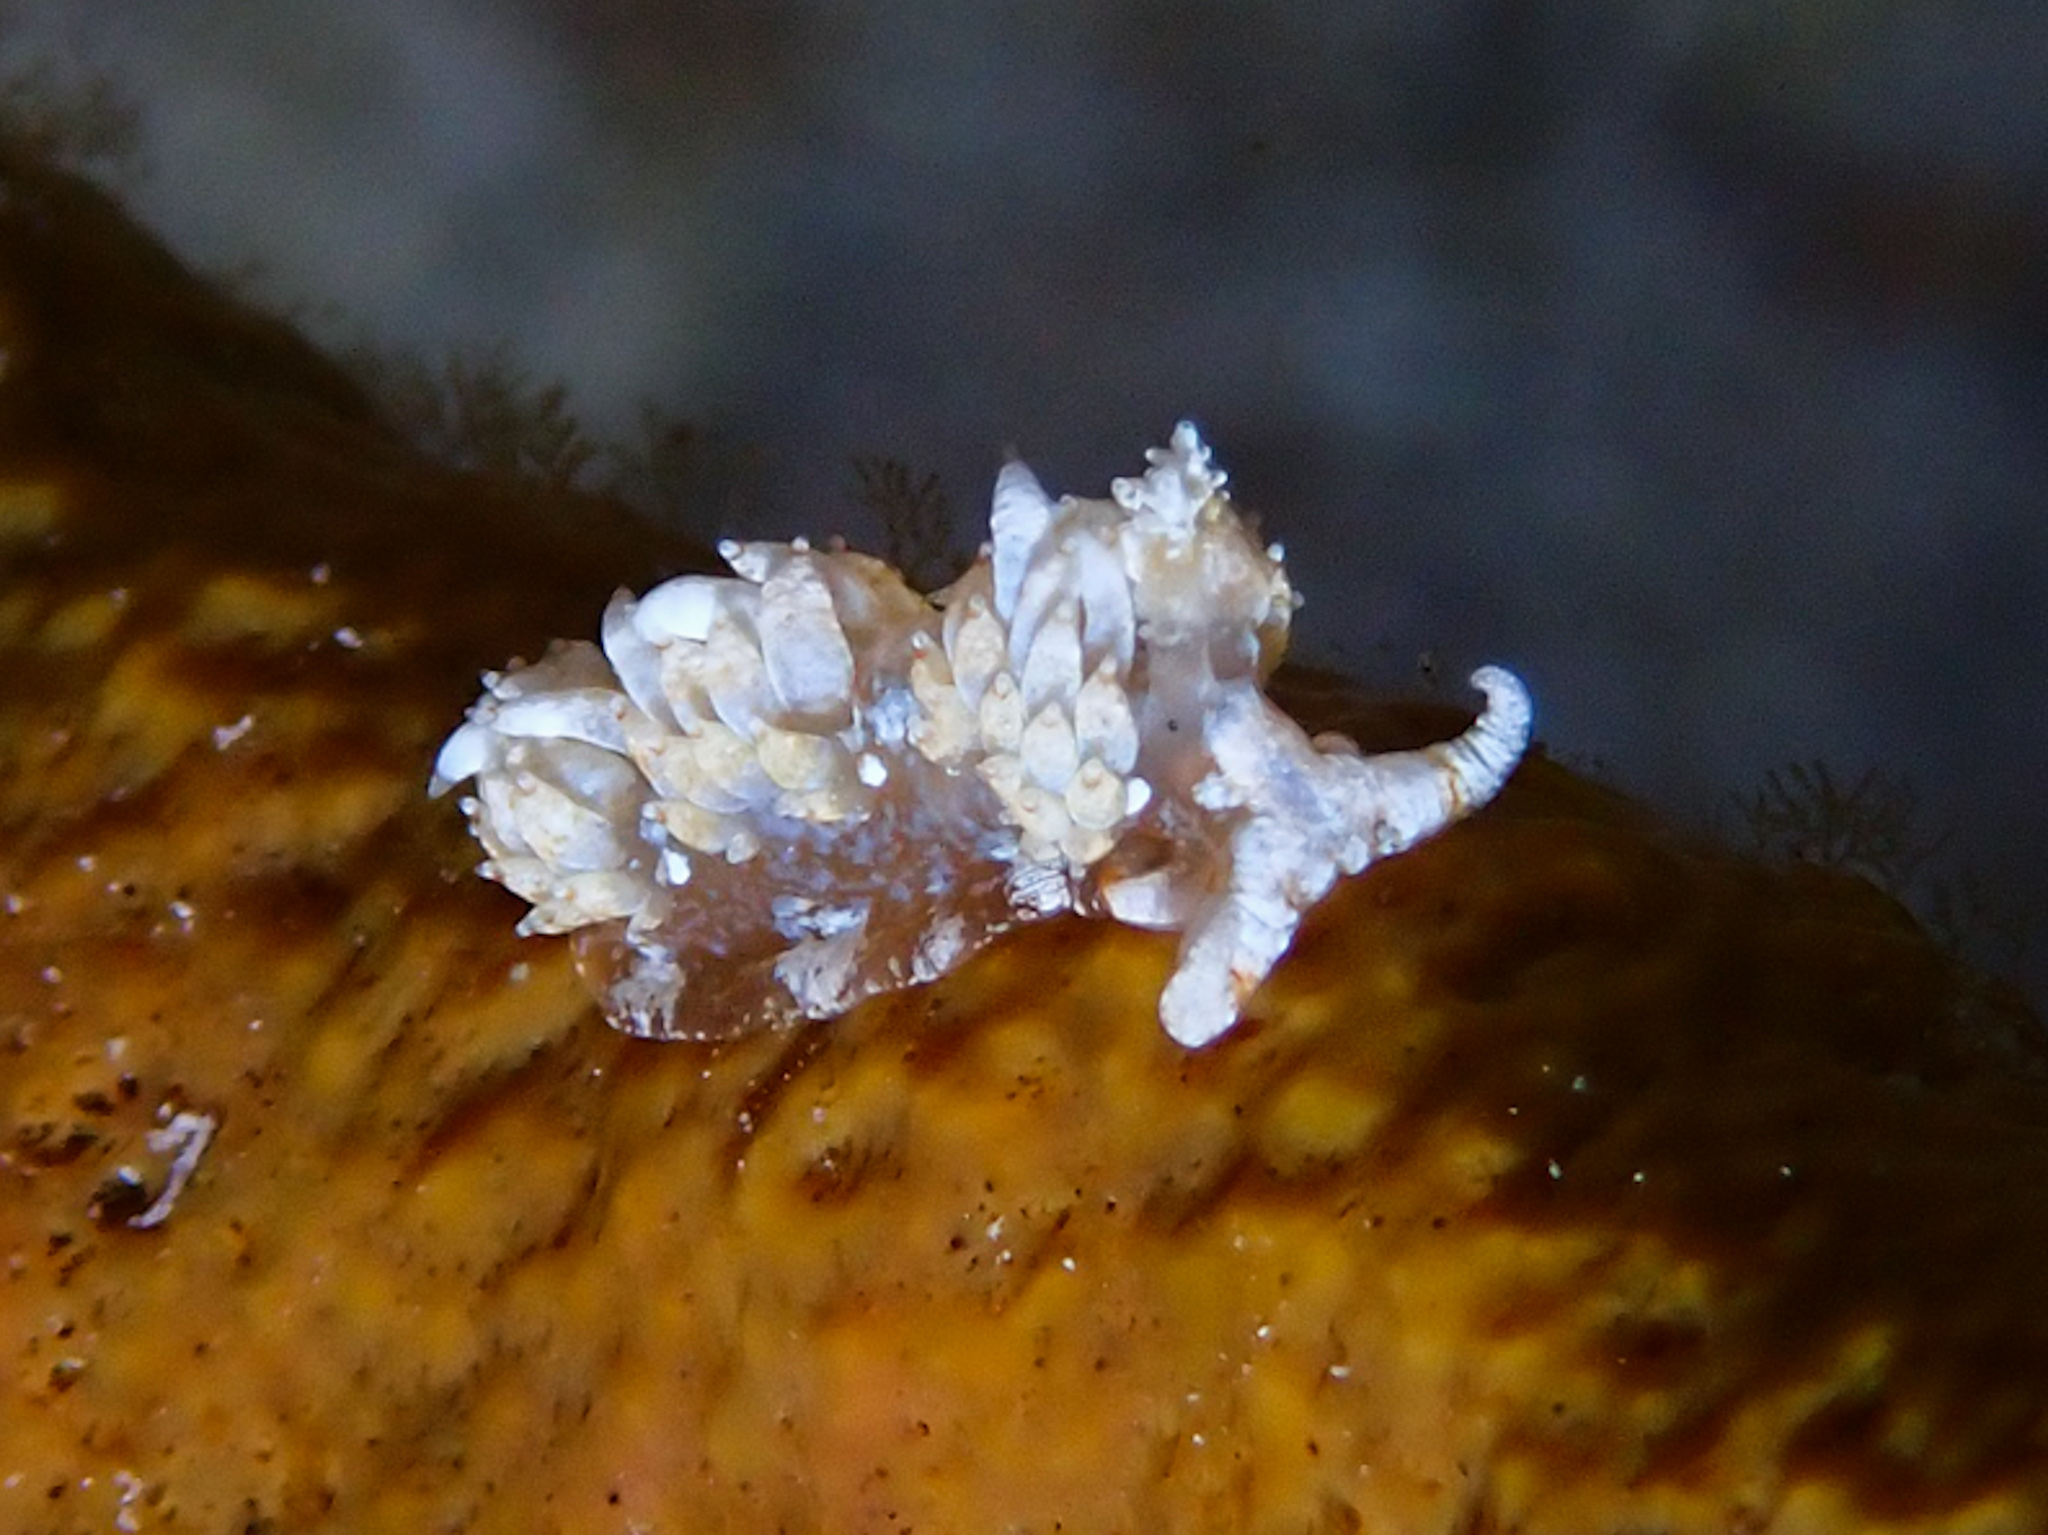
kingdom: Animalia
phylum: Mollusca
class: Gastropoda
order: Nudibranchia
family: Facelinidae
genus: Palisa
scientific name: Palisa papillata
